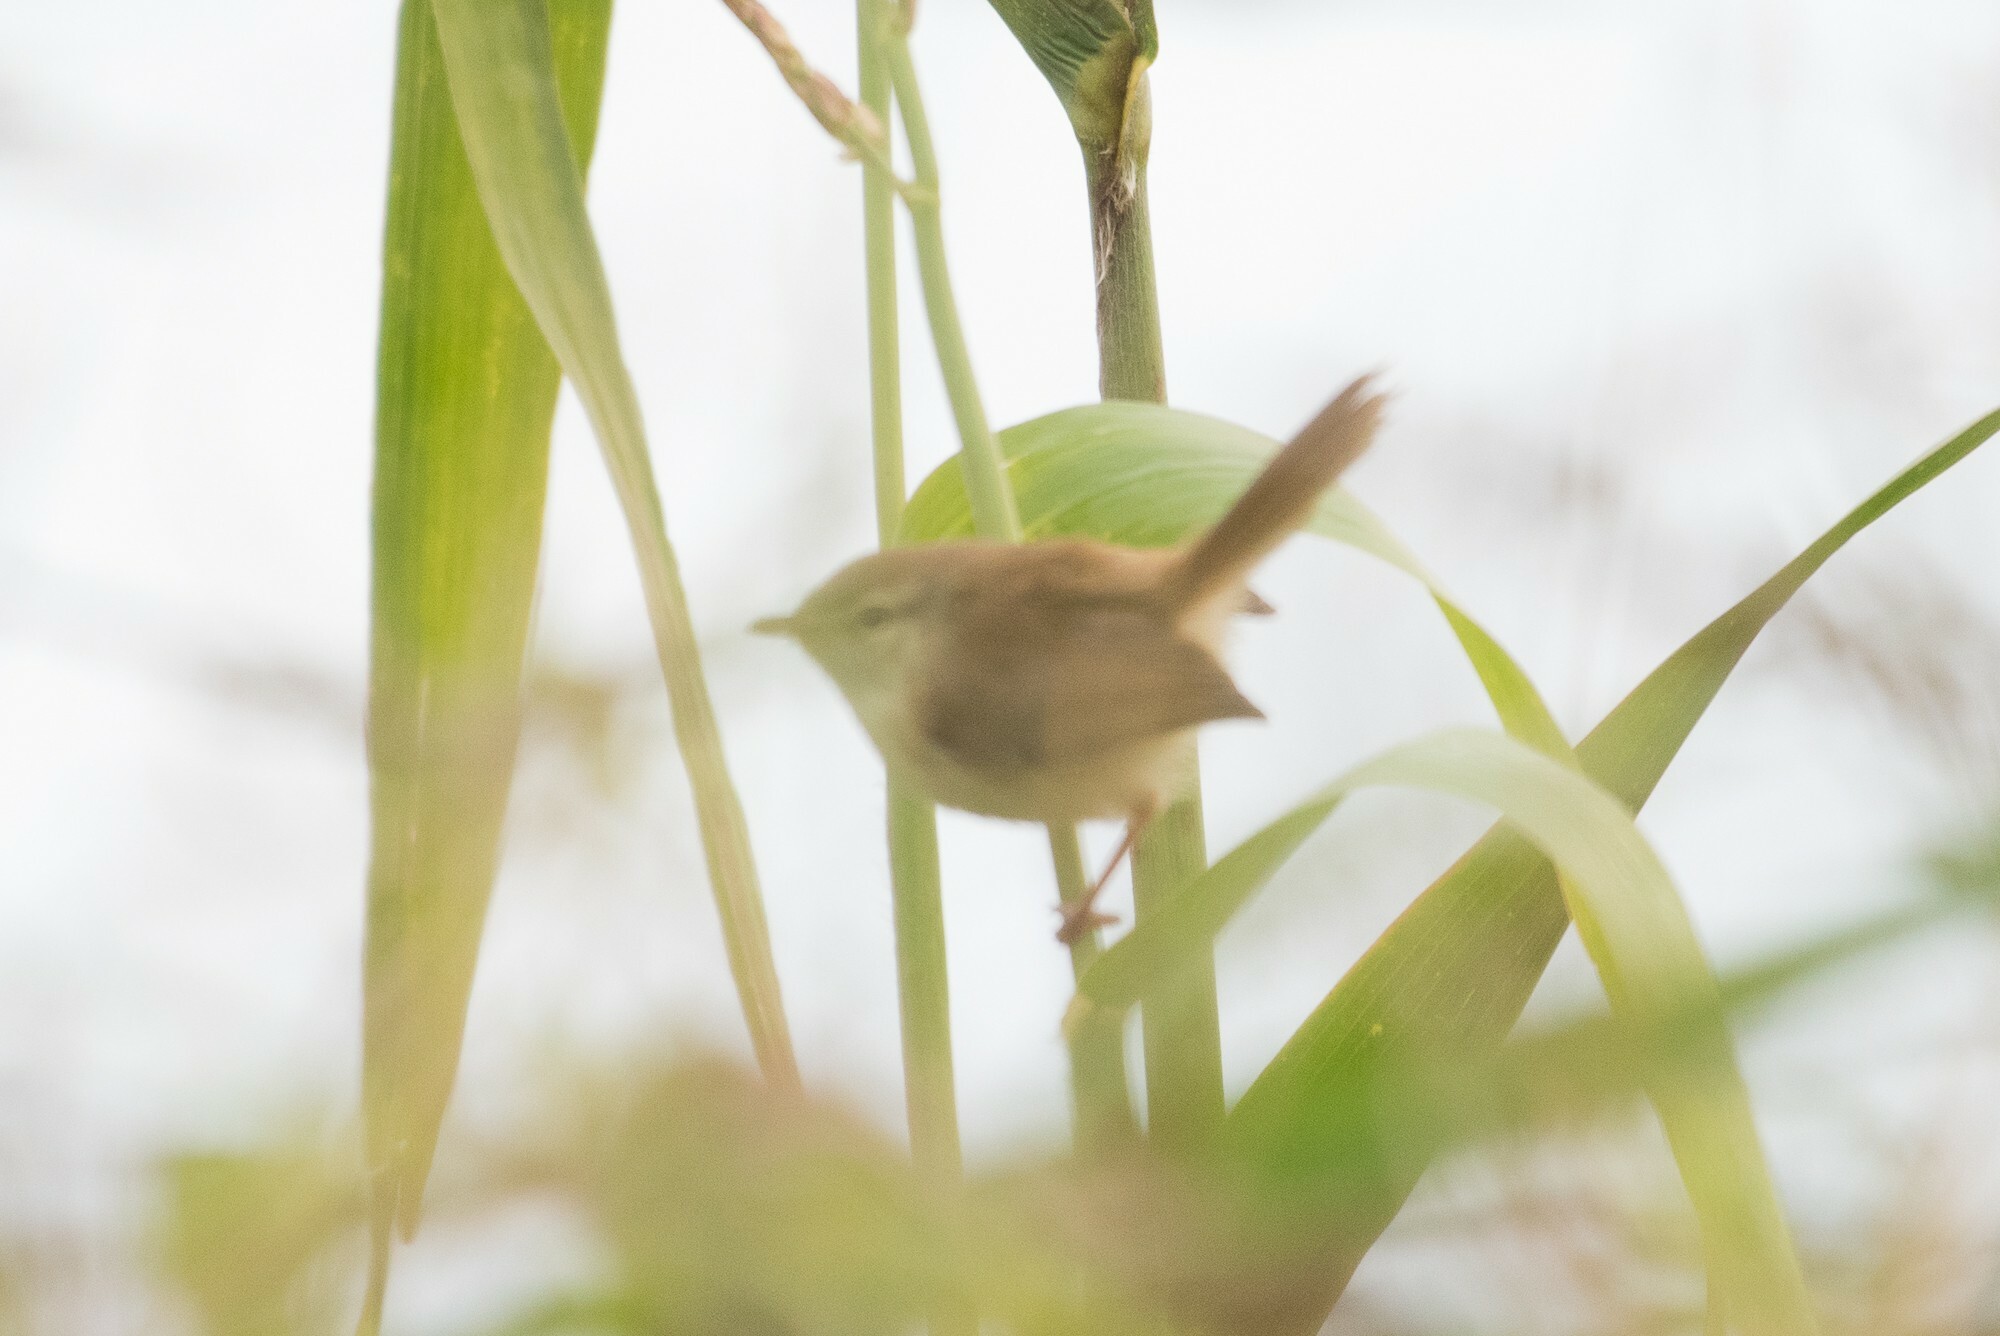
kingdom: Animalia
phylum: Chordata
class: Aves
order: Passeriformes
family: Cisticolidae
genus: Prinia
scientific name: Prinia subflava
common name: Tawny-flanked prinia
